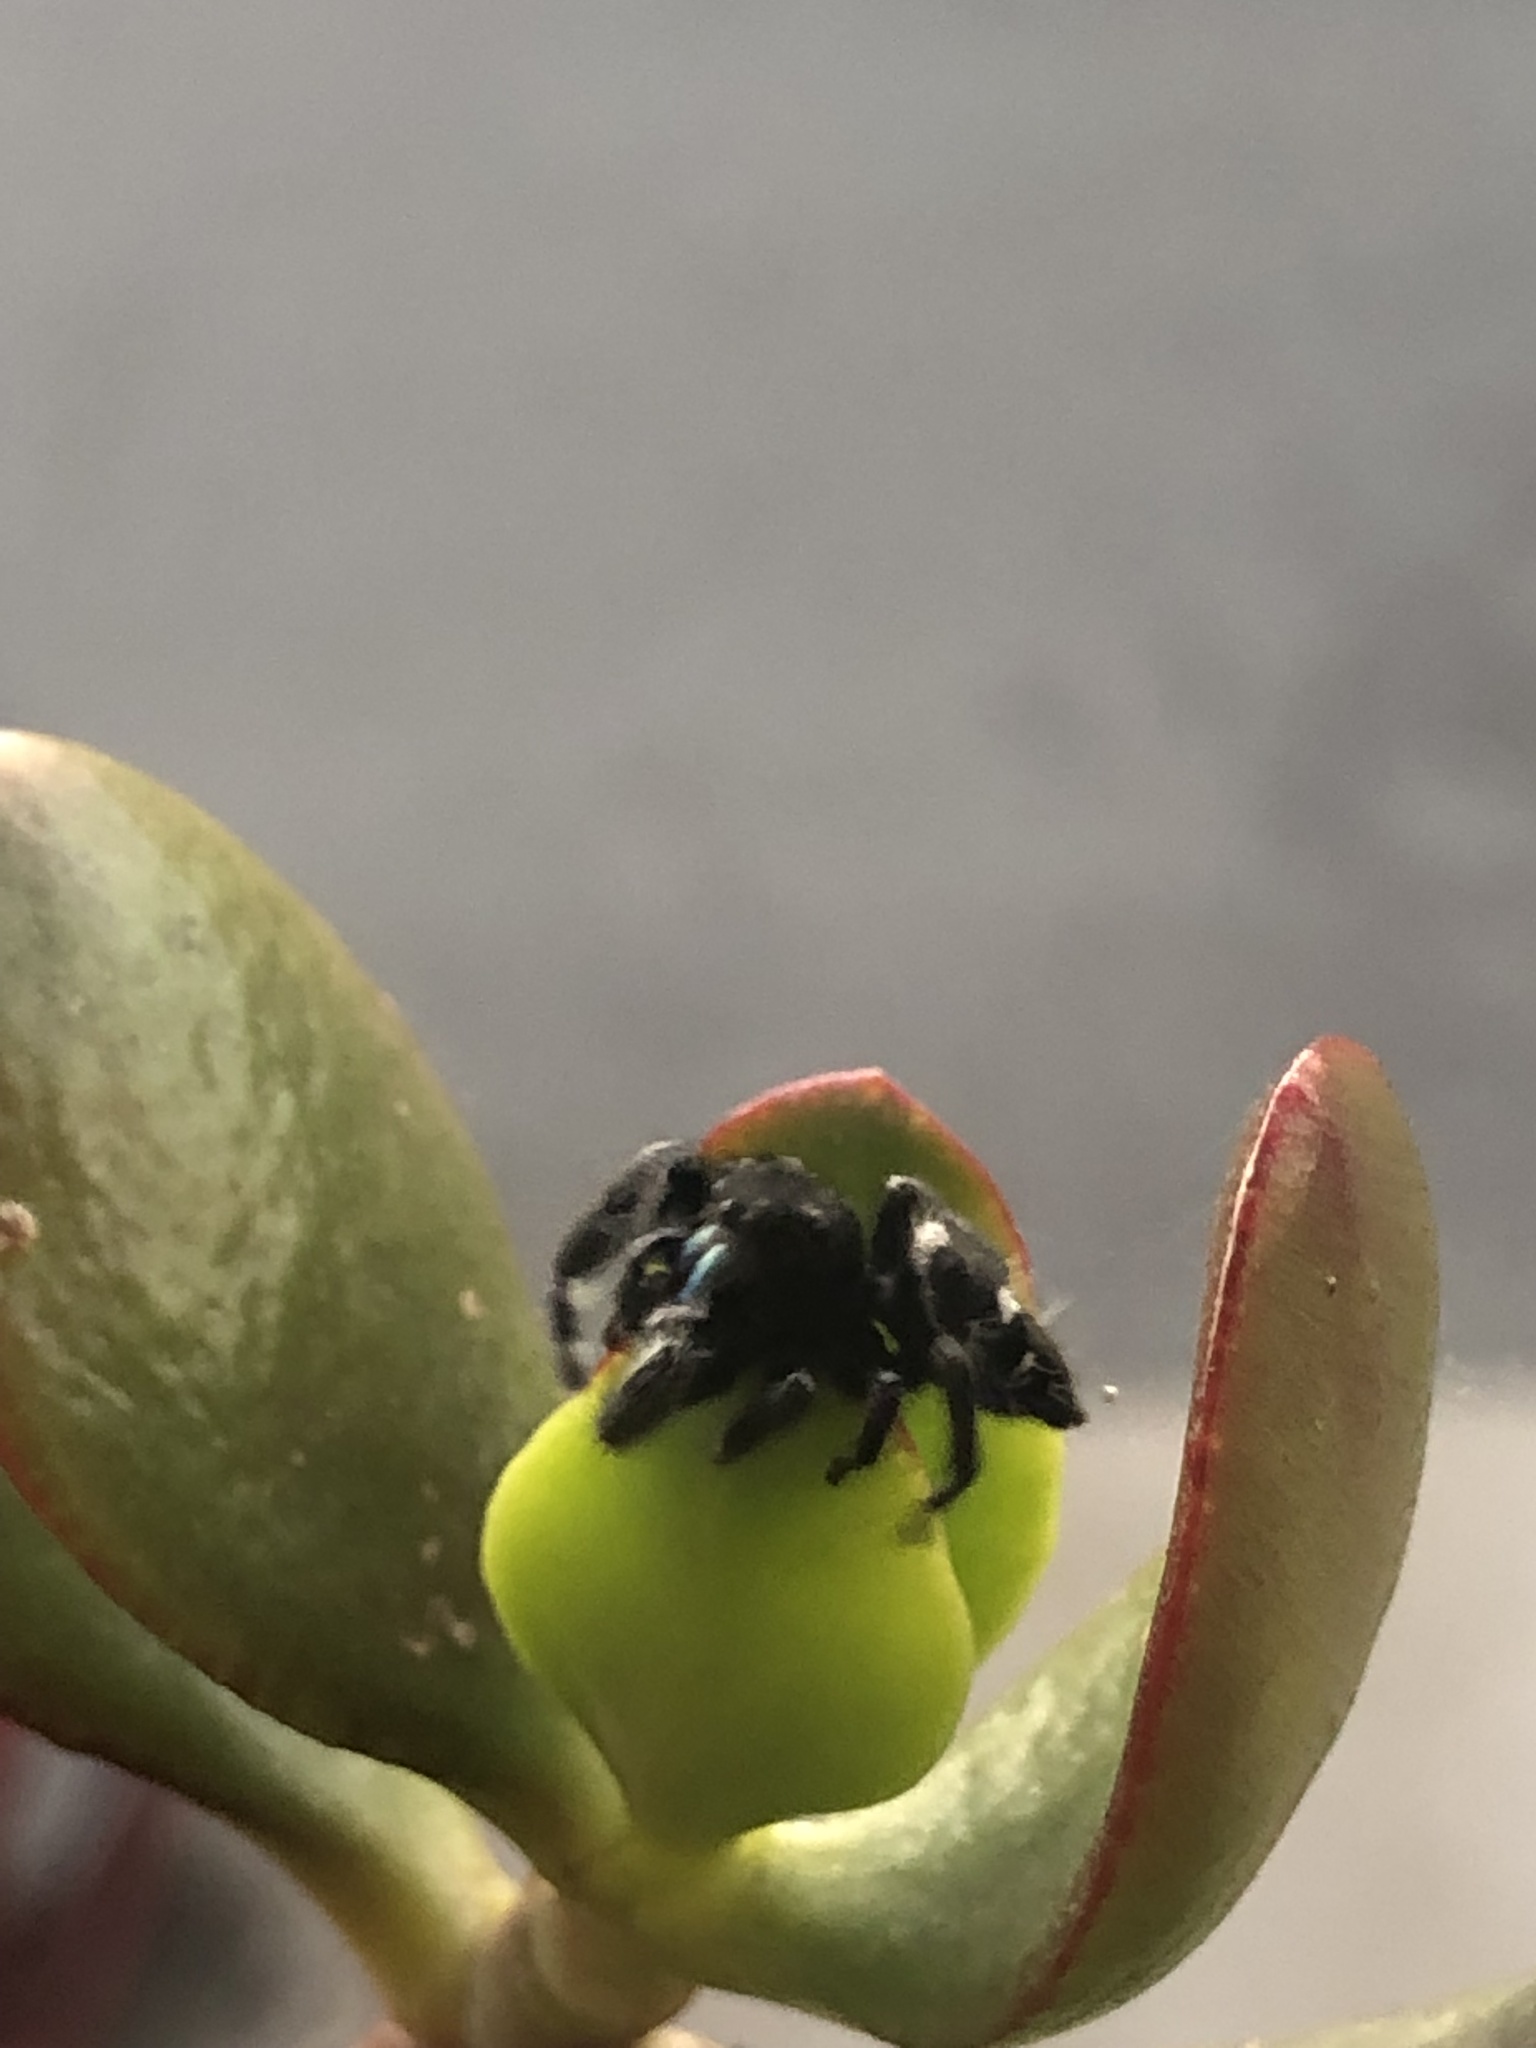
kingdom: Animalia
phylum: Arthropoda
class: Arachnida
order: Araneae
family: Salticidae
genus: Phidippus
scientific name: Phidippus audax
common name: Bold jumper
